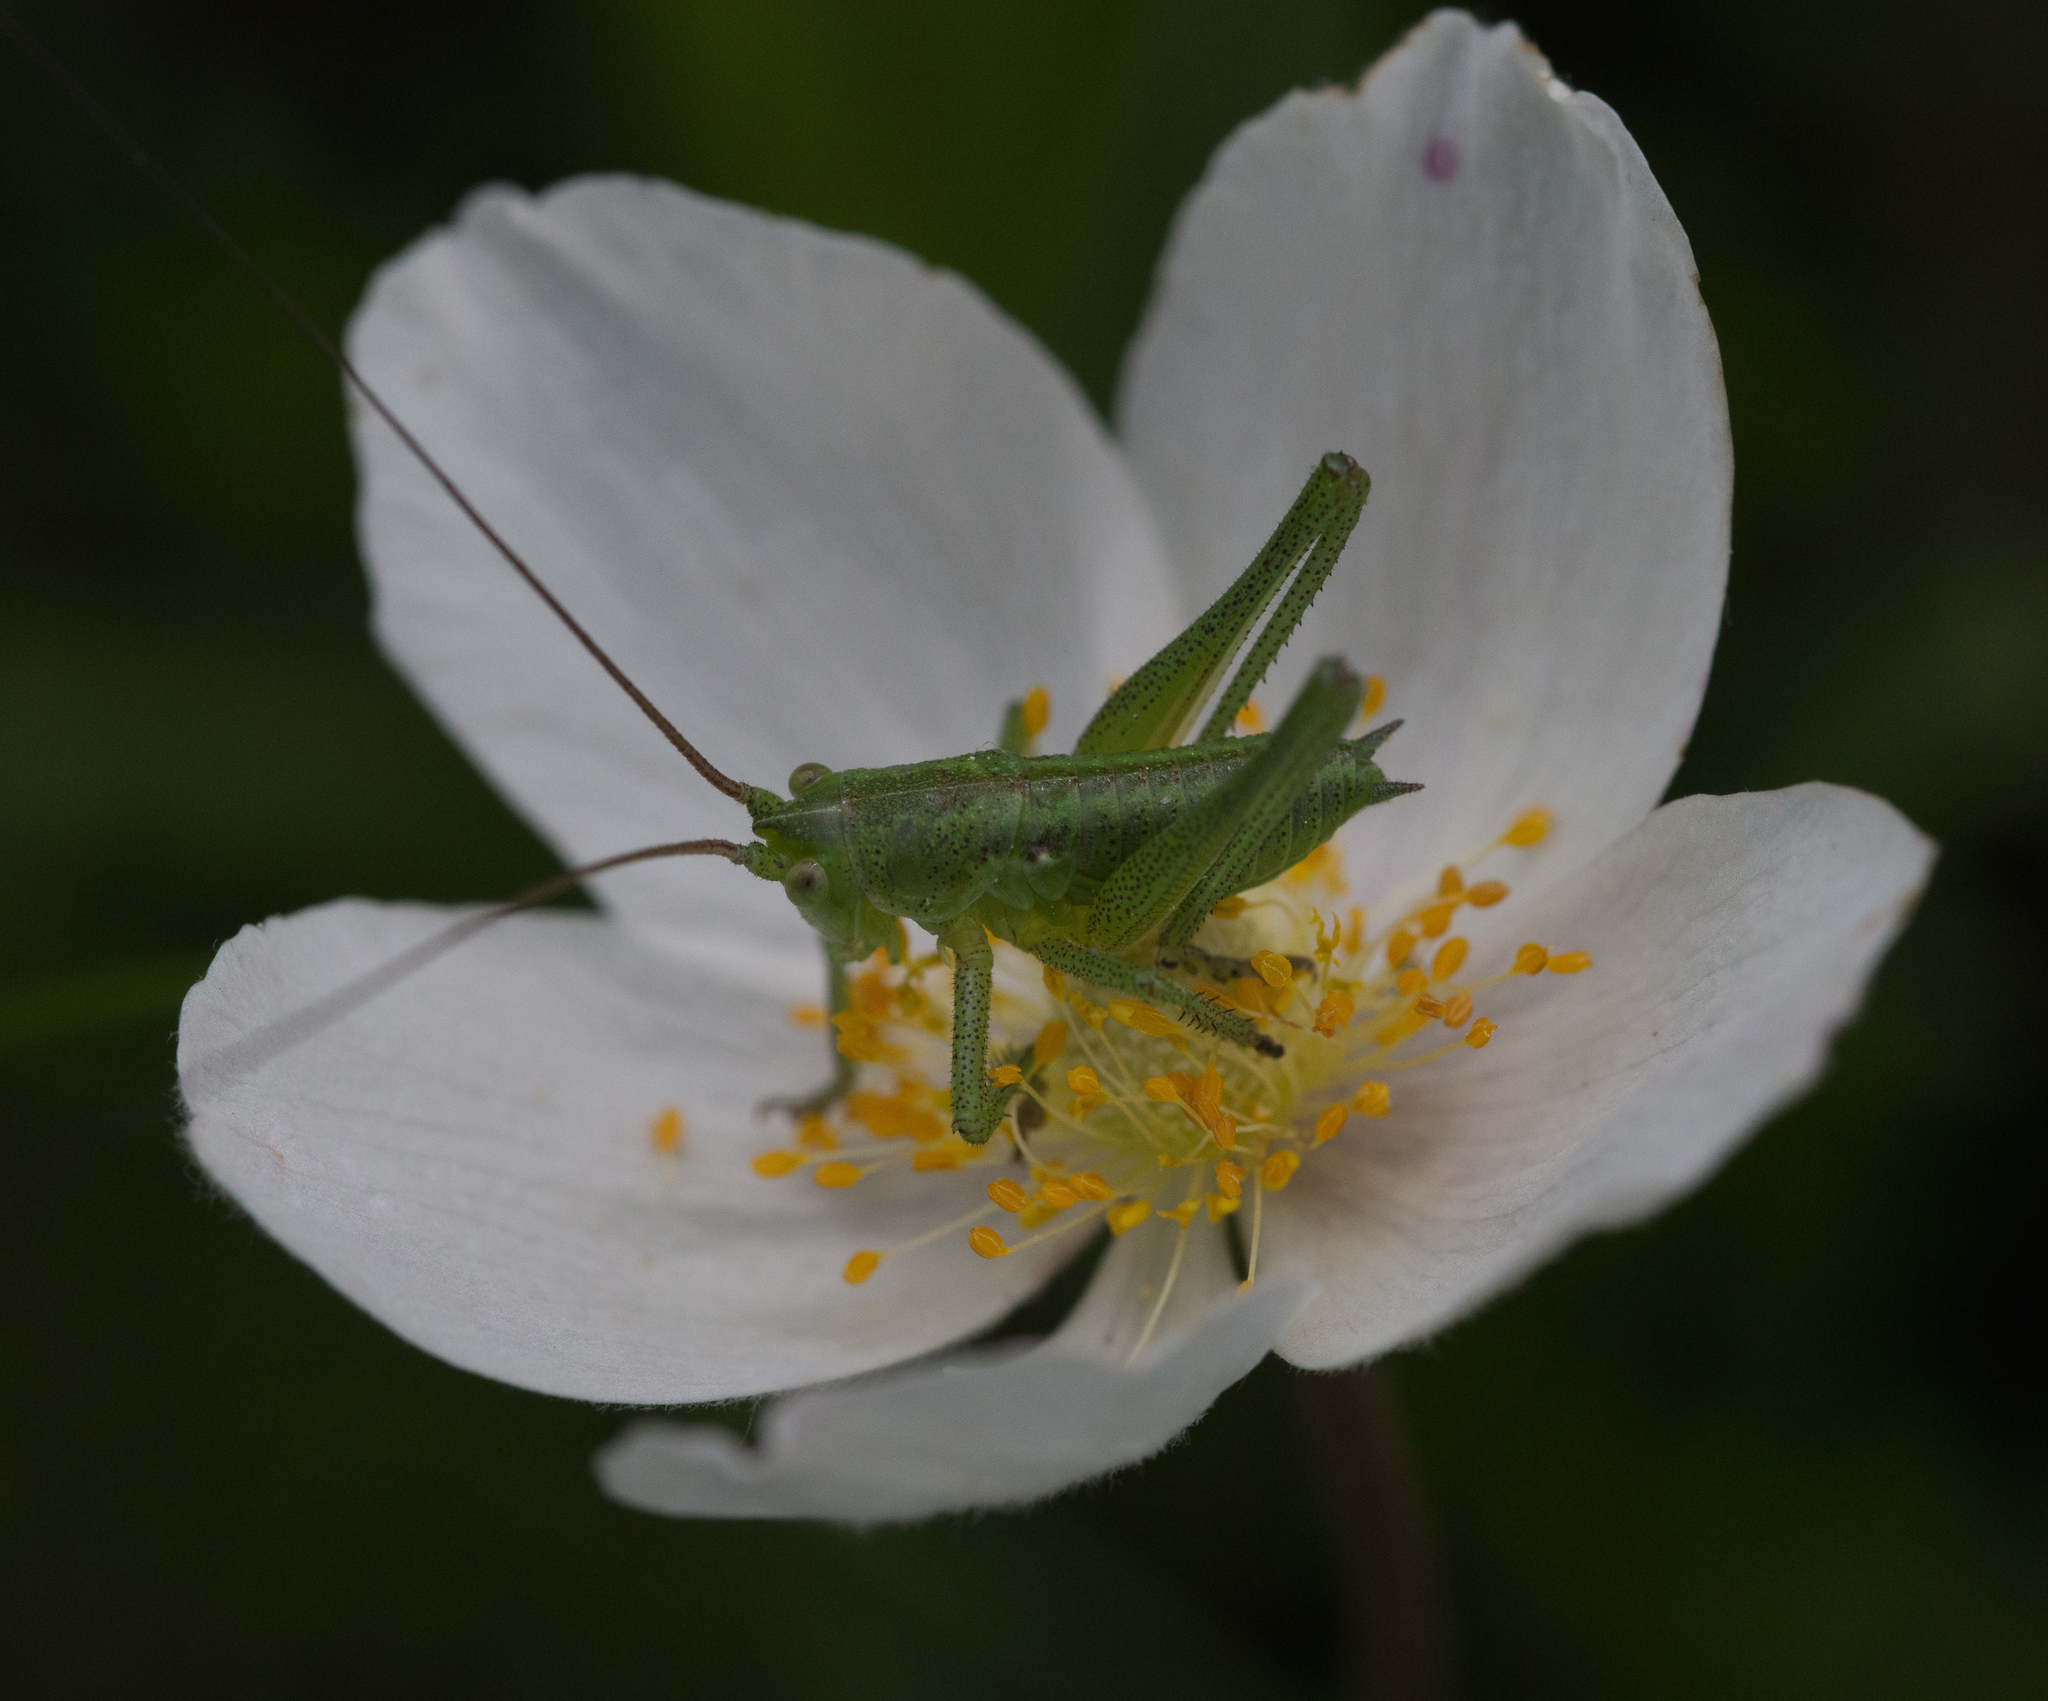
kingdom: Plantae
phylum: Tracheophyta
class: Magnoliopsida
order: Ranunculales
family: Ranunculaceae
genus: Anemone
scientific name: Anemone sylvestris
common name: Snowdrop anemone
